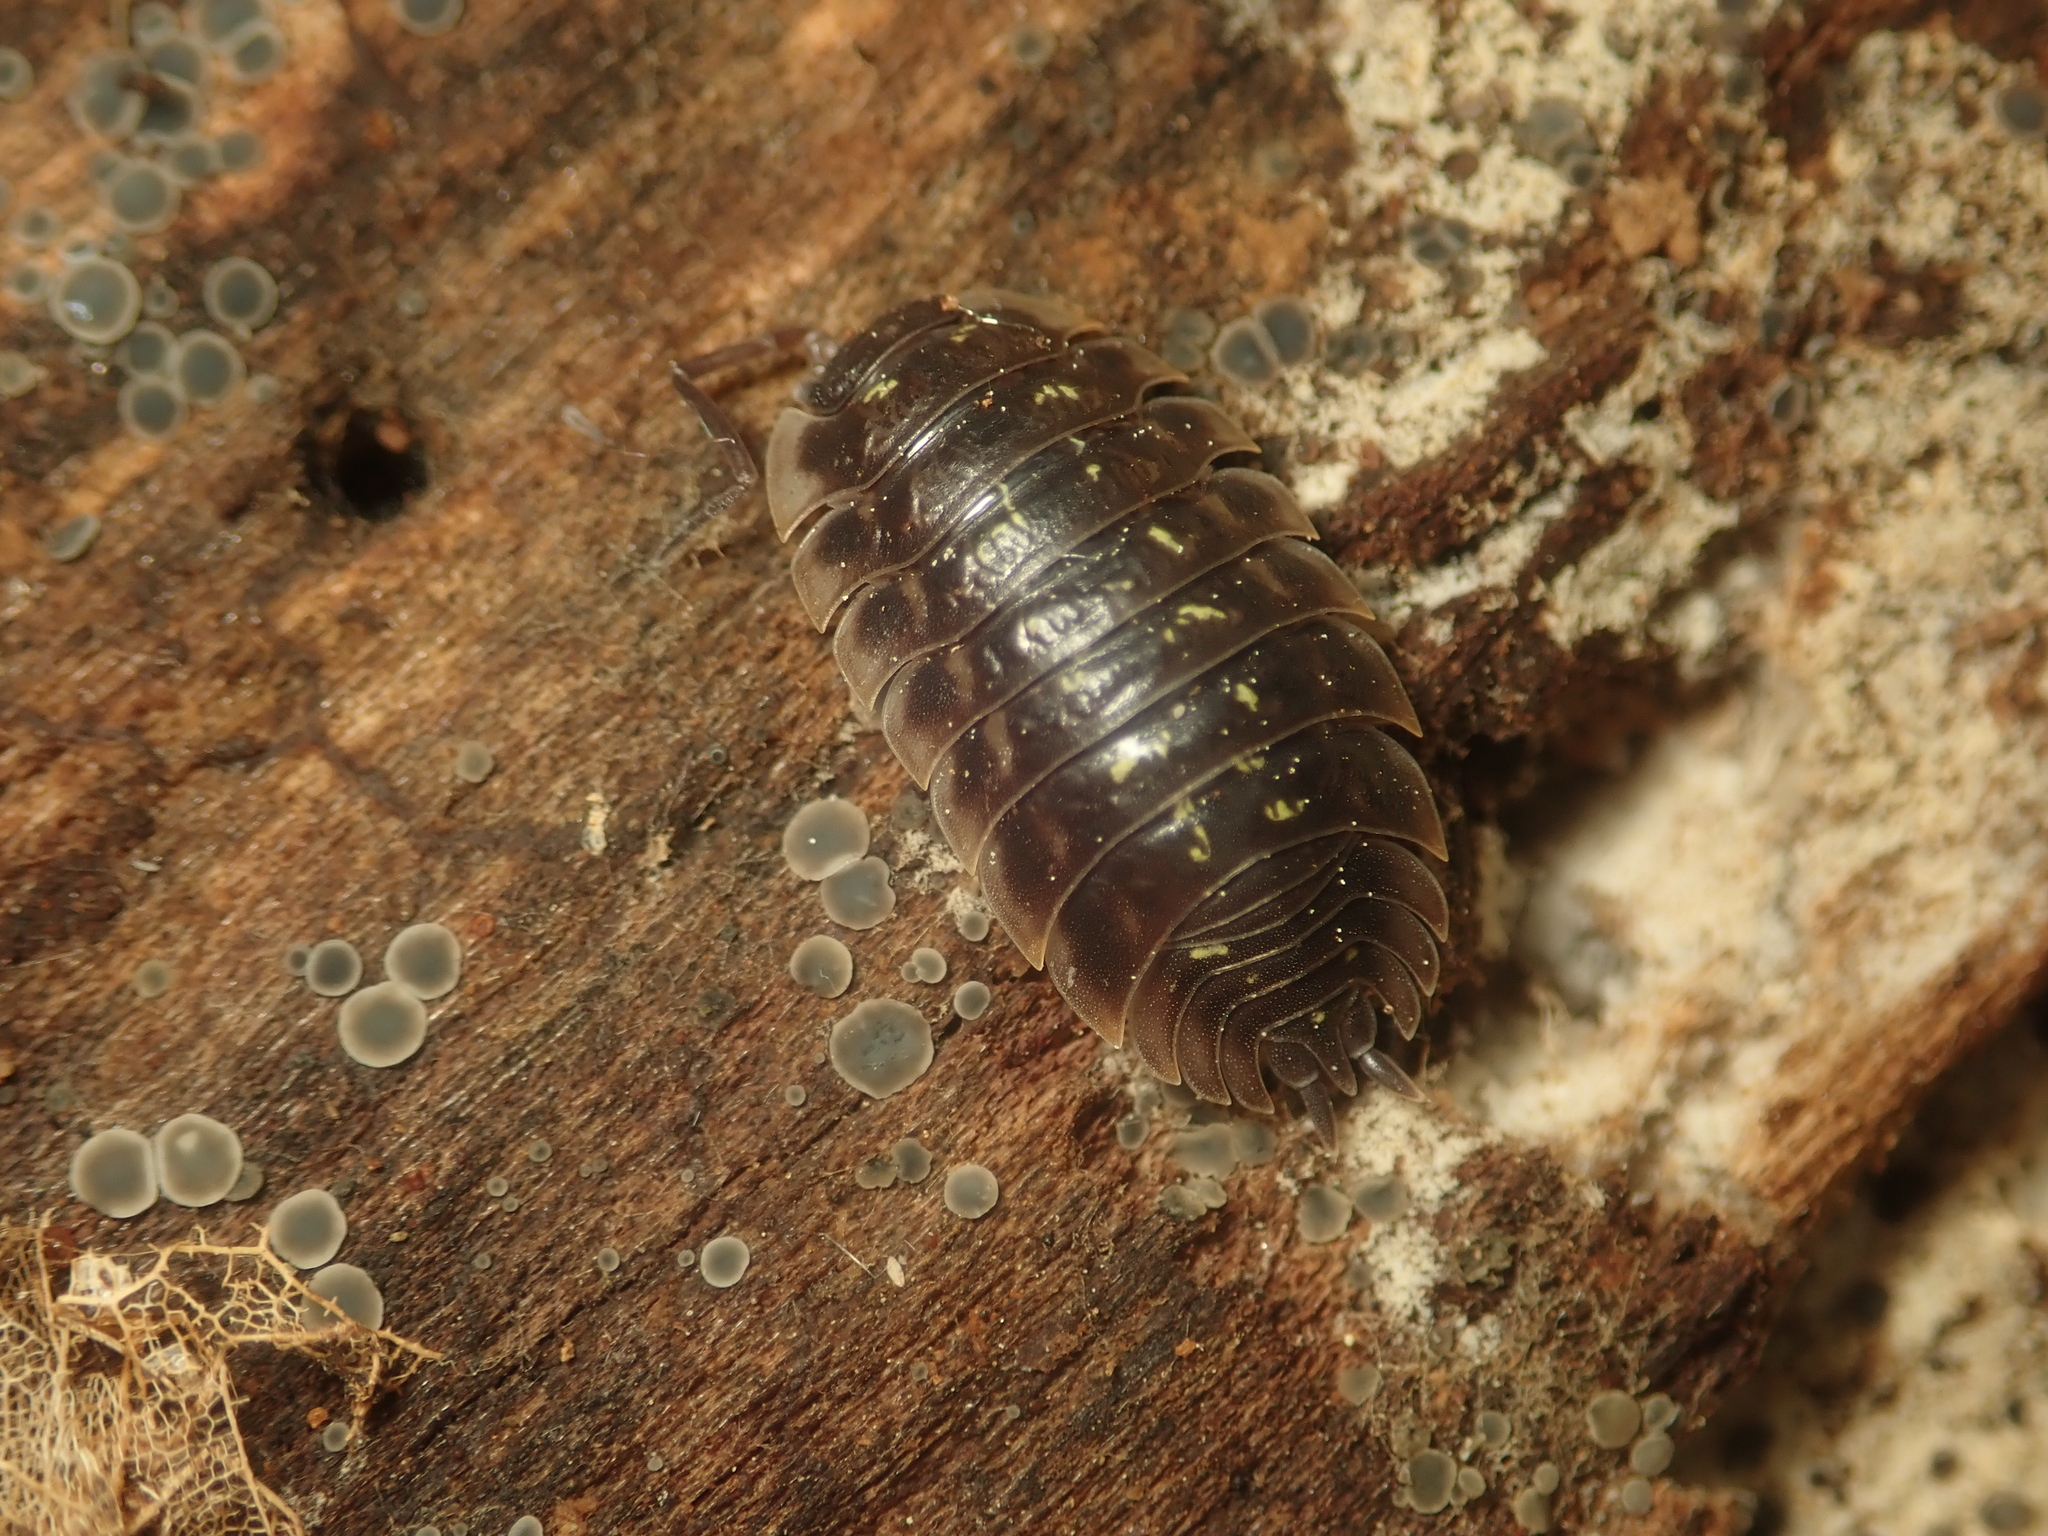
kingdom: Animalia
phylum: Arthropoda
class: Malacostraca
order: Isopoda
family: Oniscidae
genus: Oniscus
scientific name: Oniscus asellus
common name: Common shiny woodlouse
